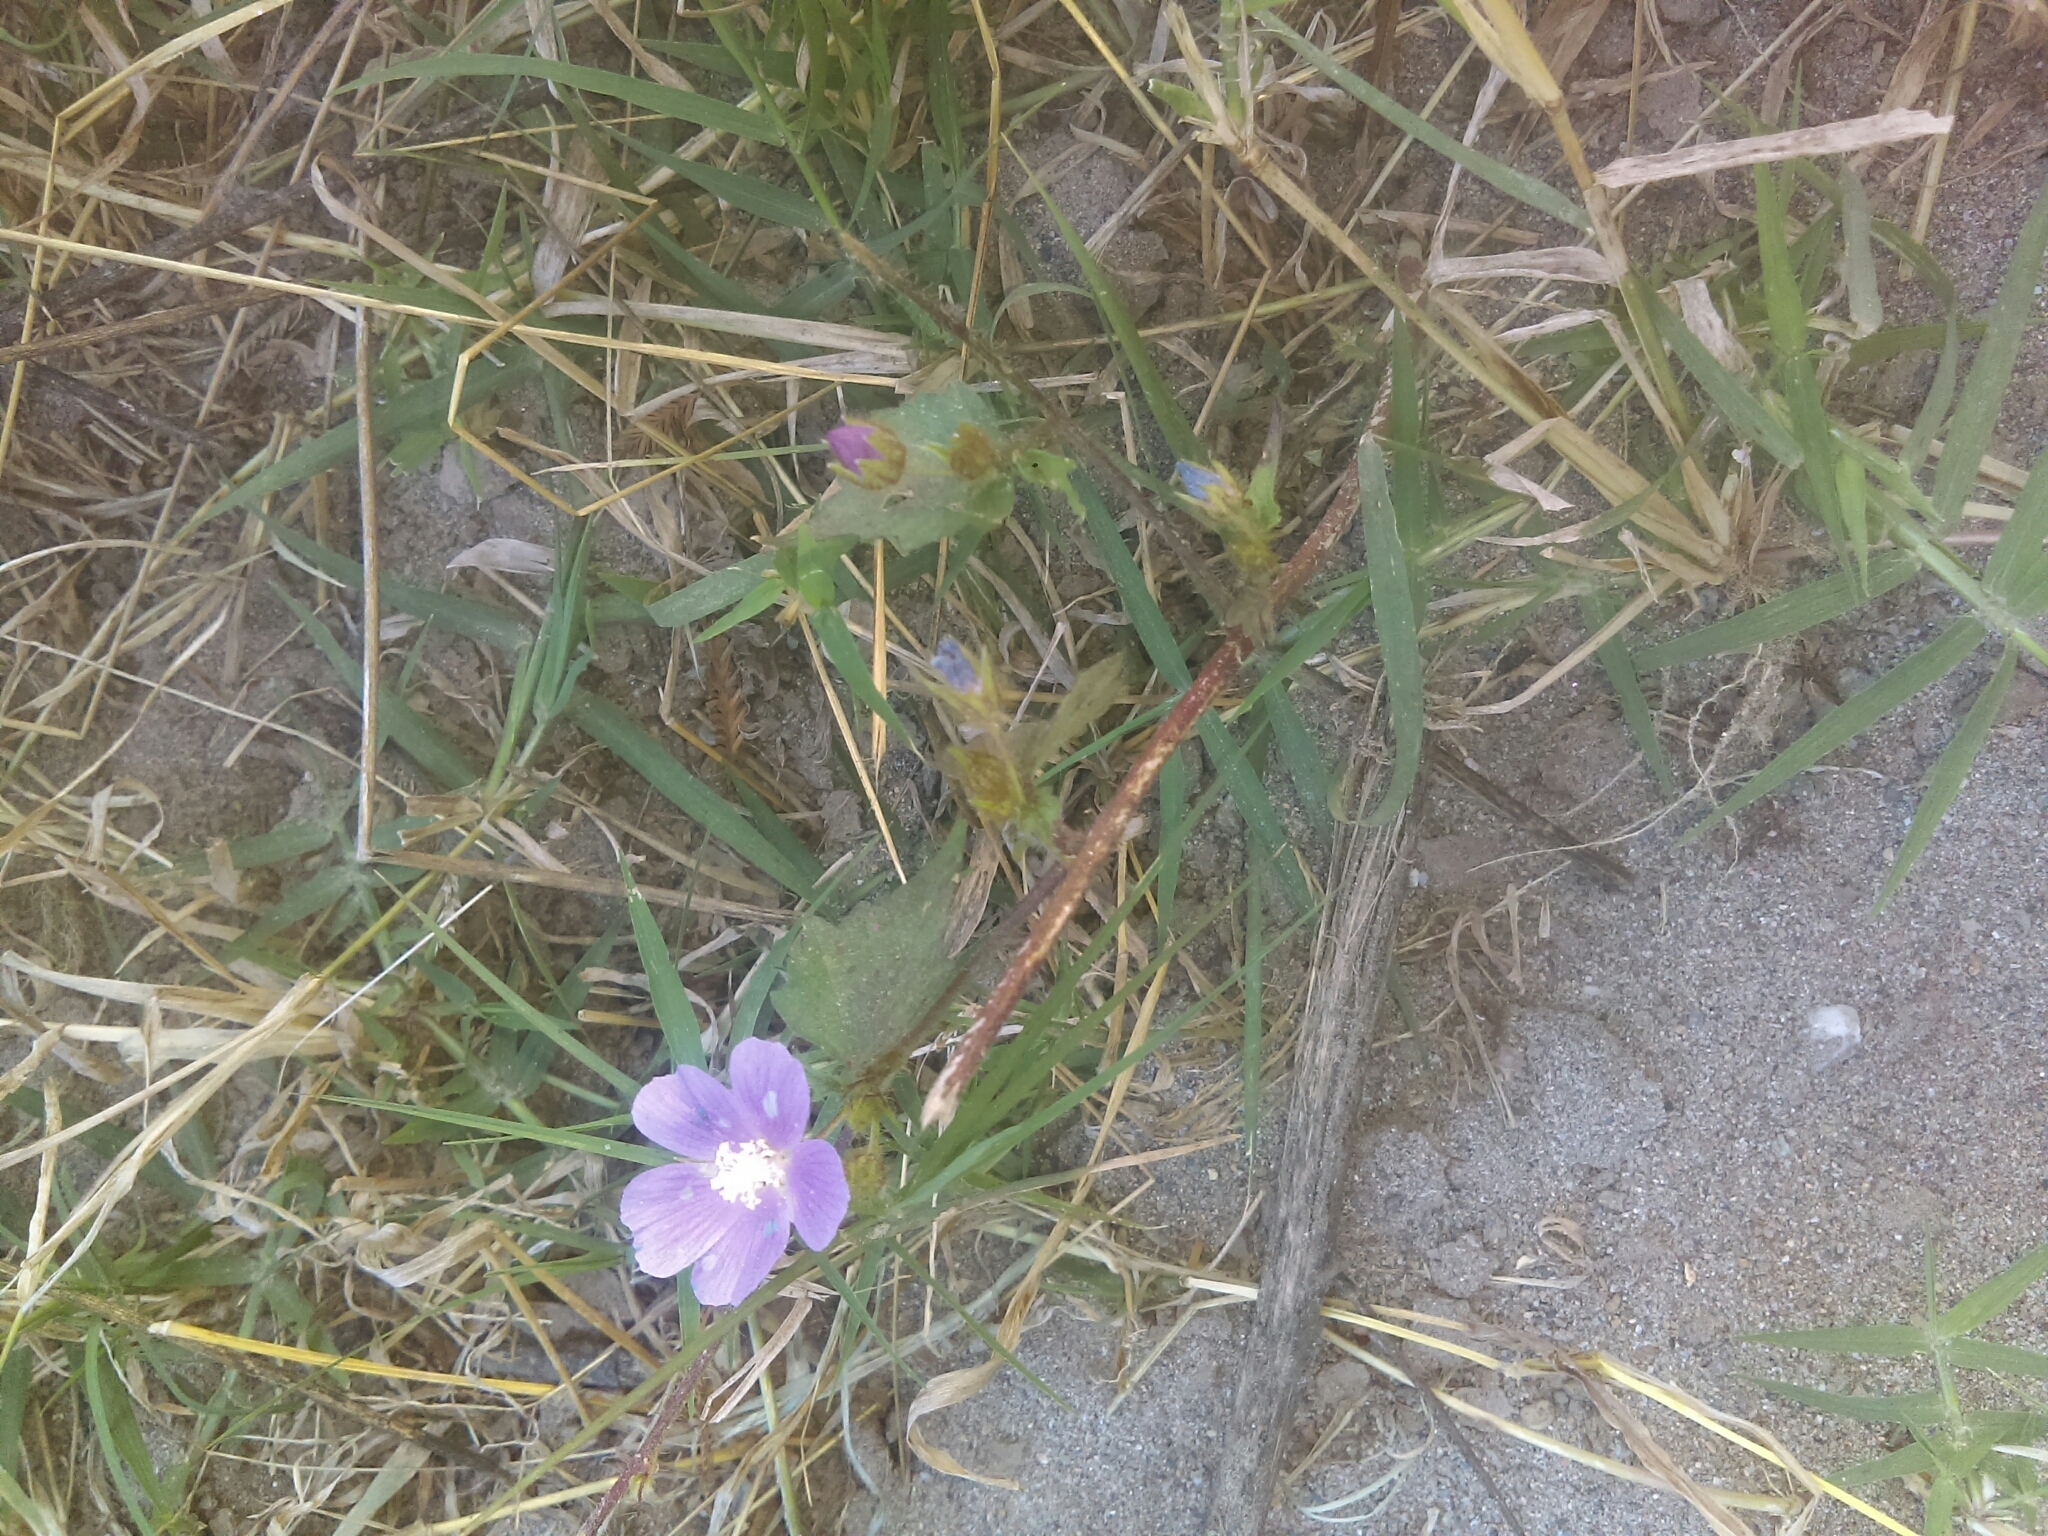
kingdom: Plantae
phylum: Tracheophyta
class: Magnoliopsida
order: Malvales
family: Malvaceae
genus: Anoda
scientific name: Anoda cristata
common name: Spurred anoda
